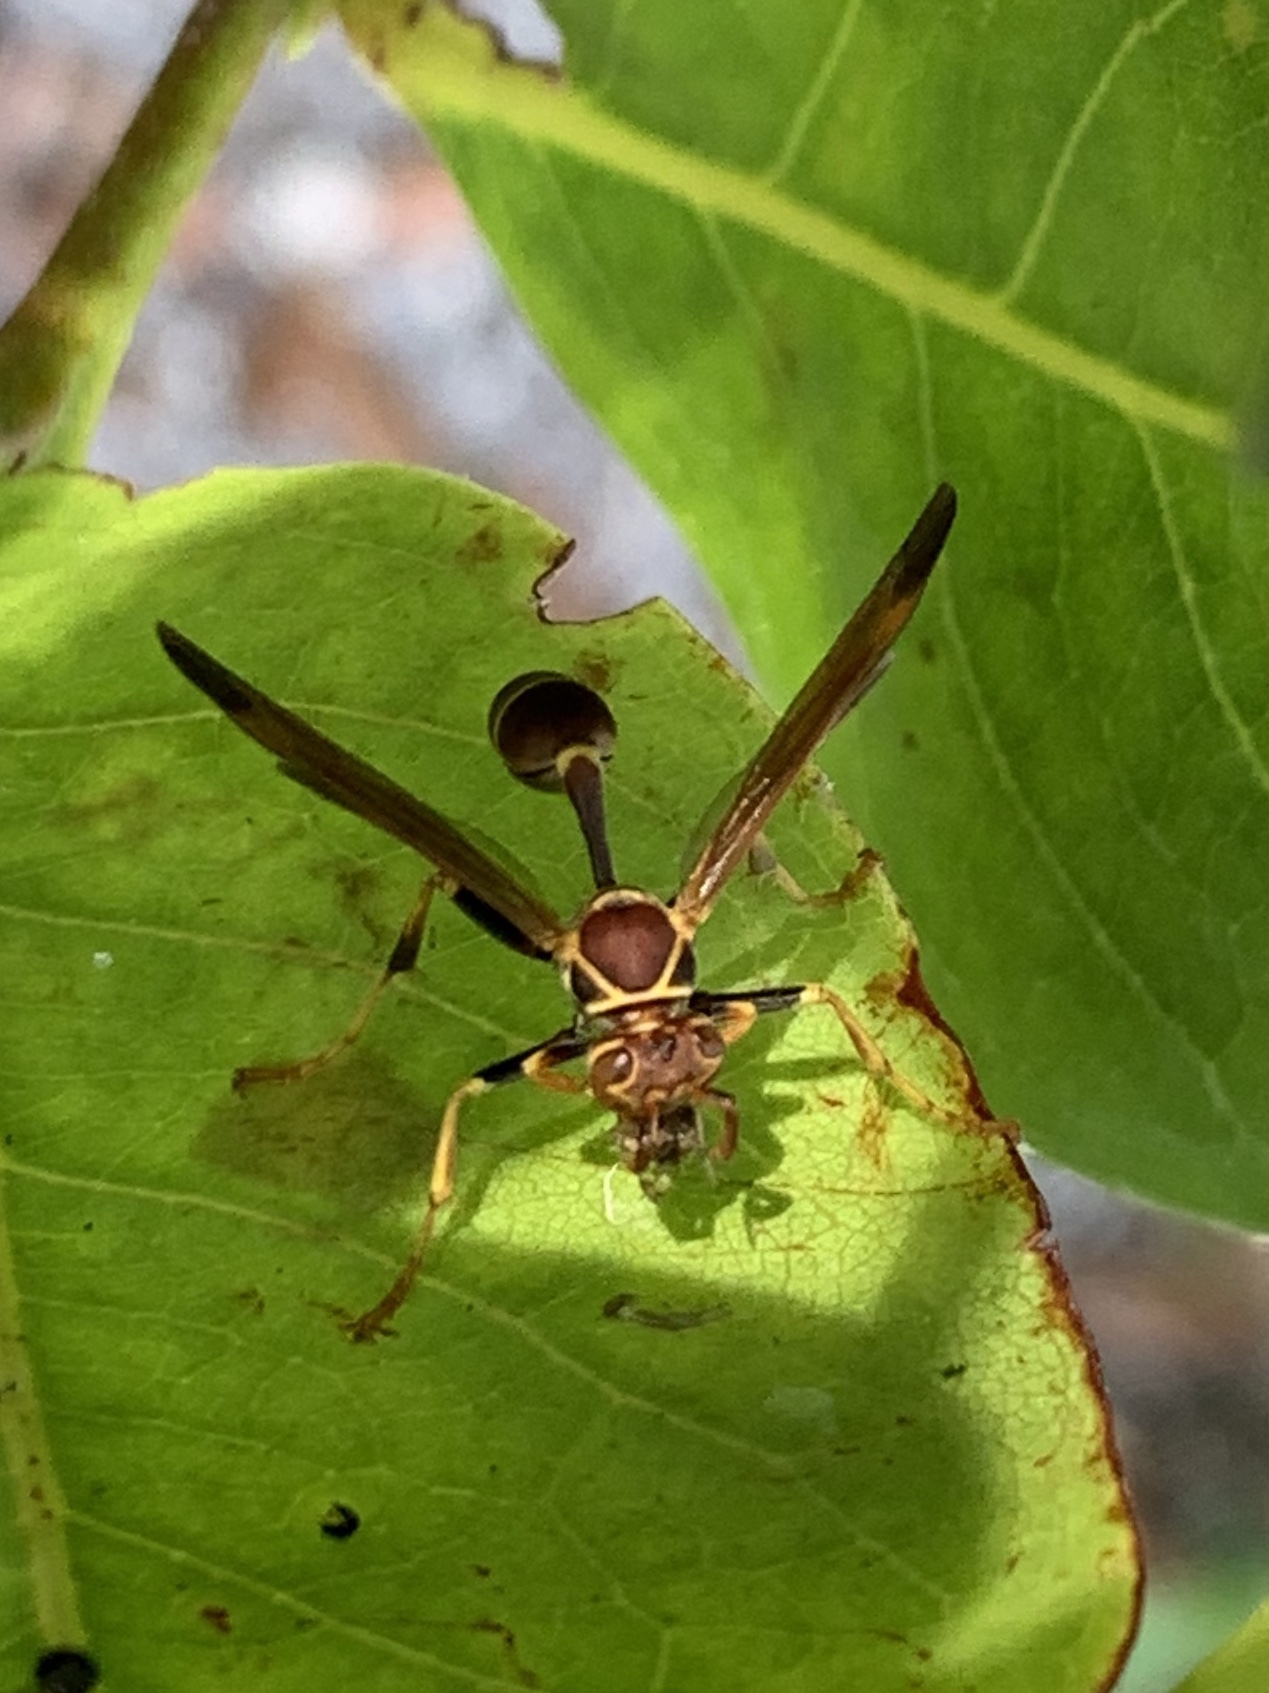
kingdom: Animalia
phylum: Arthropoda
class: Insecta
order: Hymenoptera
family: Vespidae
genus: Mischocyttarus
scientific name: Mischocyttarus mexicanus
